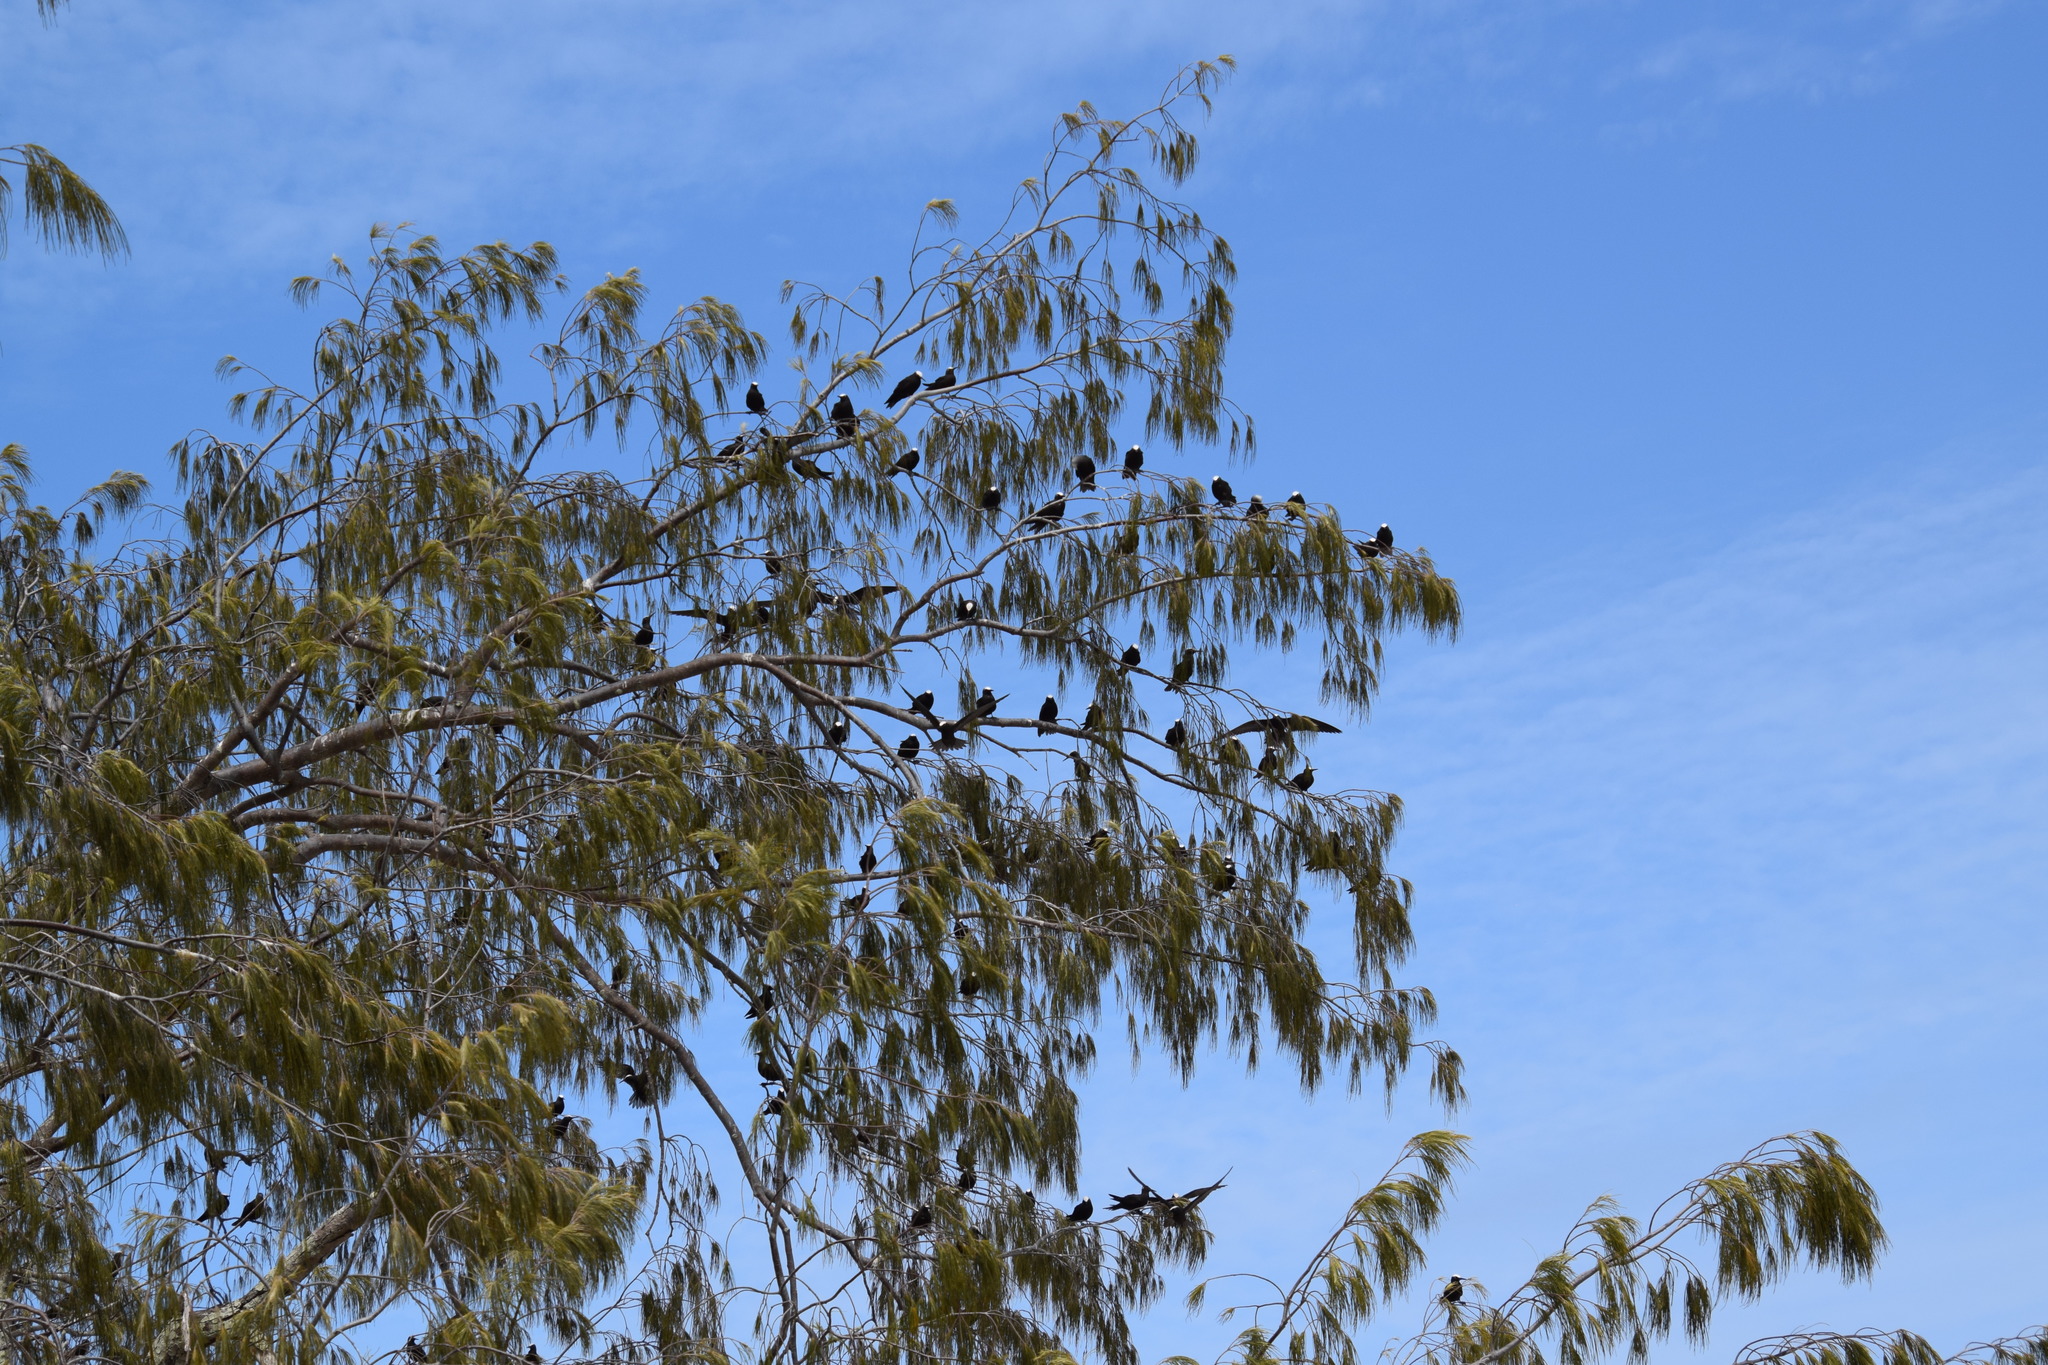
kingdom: Animalia
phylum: Chordata
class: Aves
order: Charadriiformes
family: Laridae
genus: Anous
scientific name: Anous minutus
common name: Black noddy
